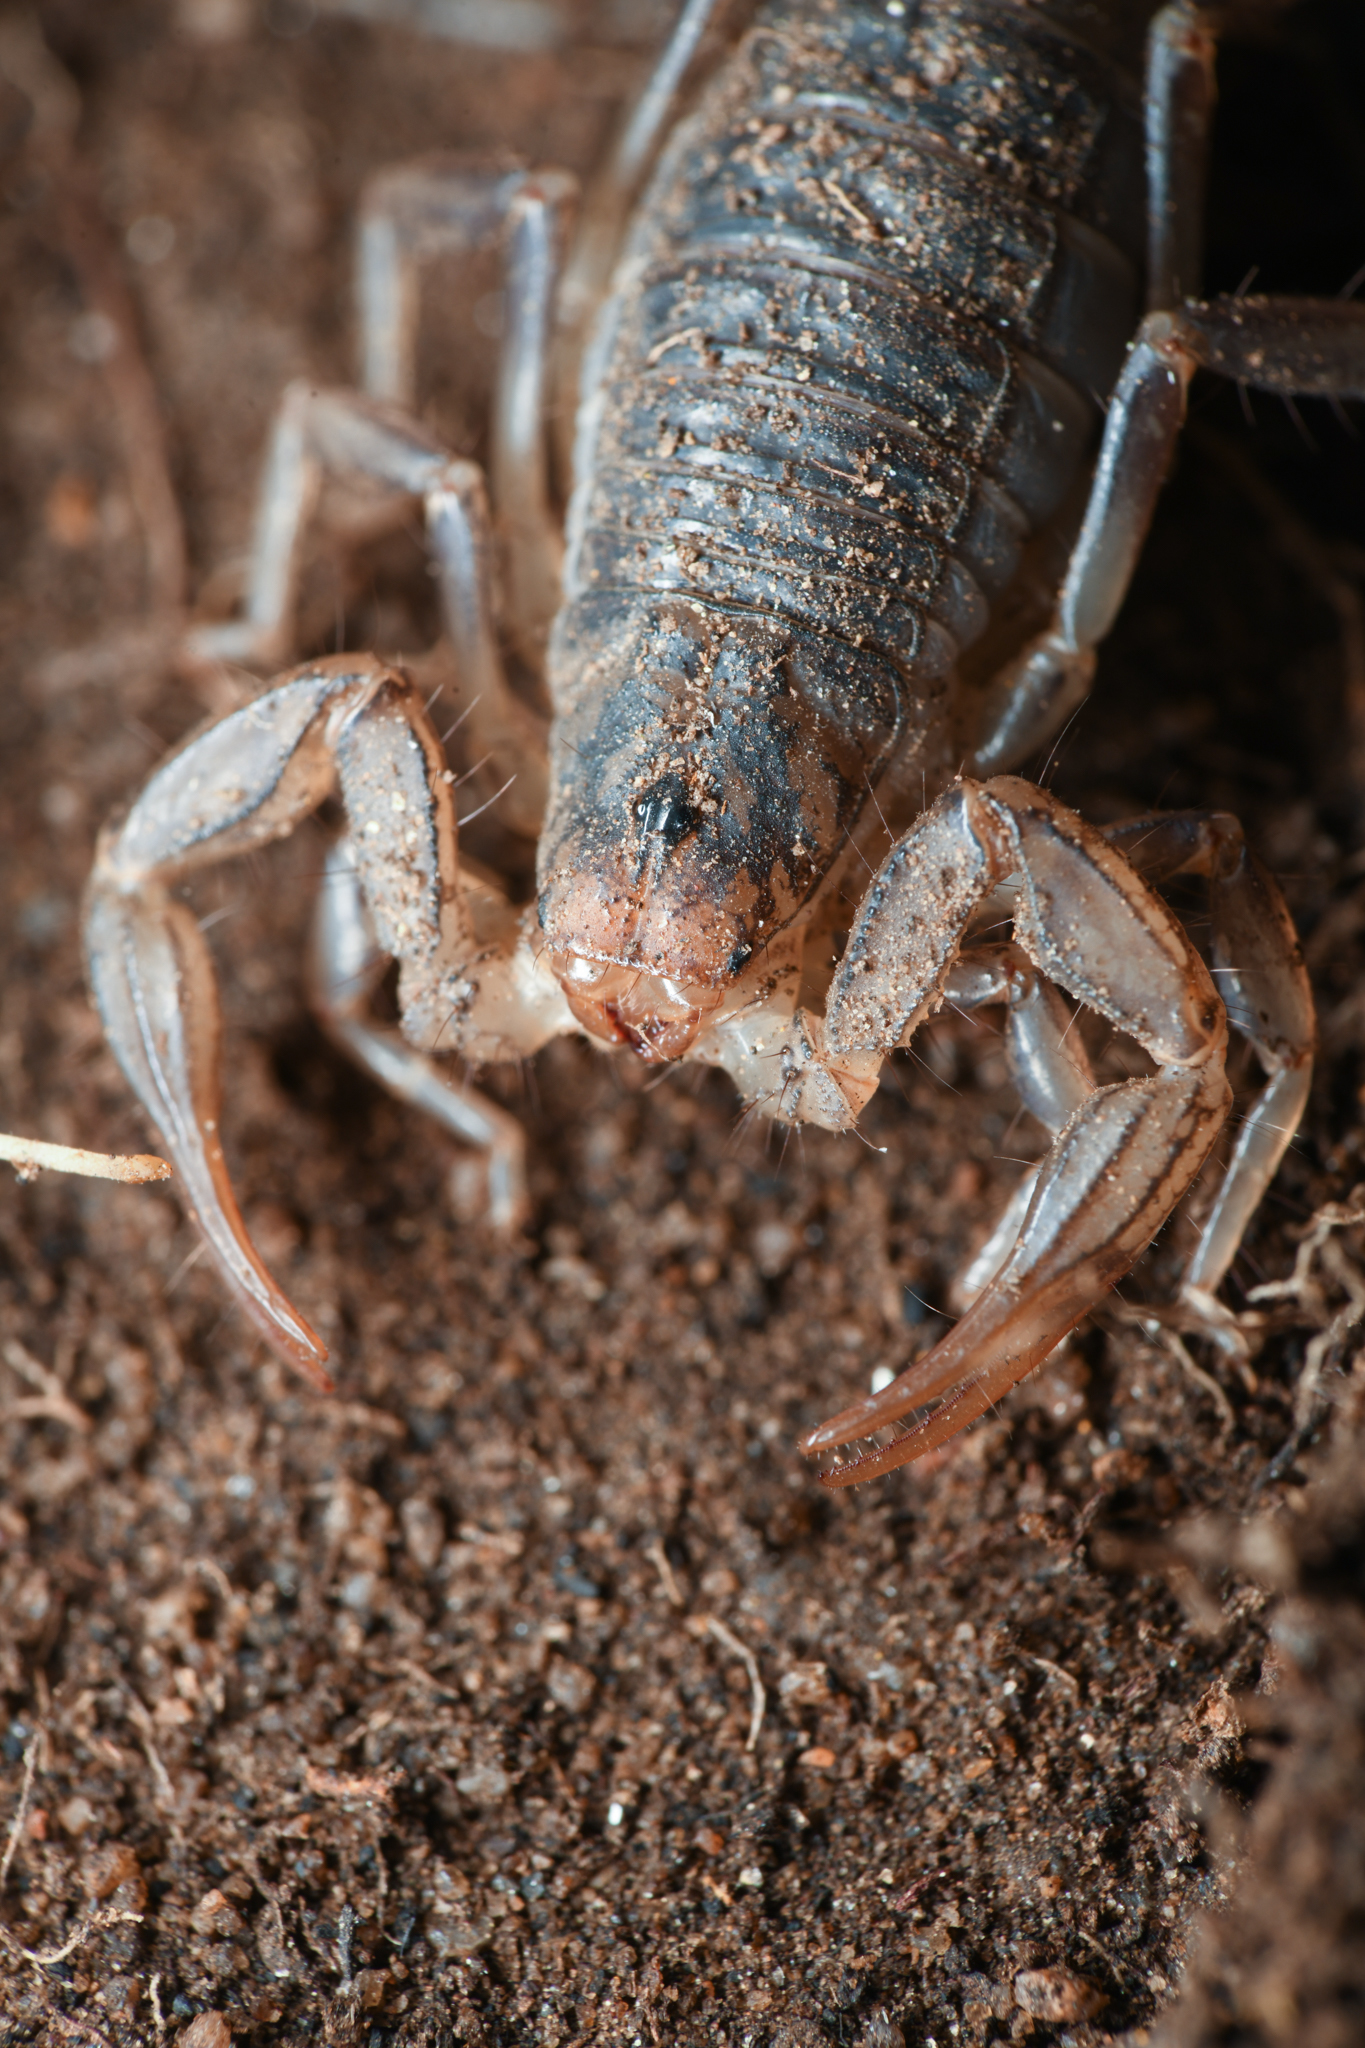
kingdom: Animalia
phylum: Arthropoda
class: Arachnida
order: Scorpiones
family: Vaejovidae
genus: Paruroctonus
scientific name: Paruroctonus silvestrii
